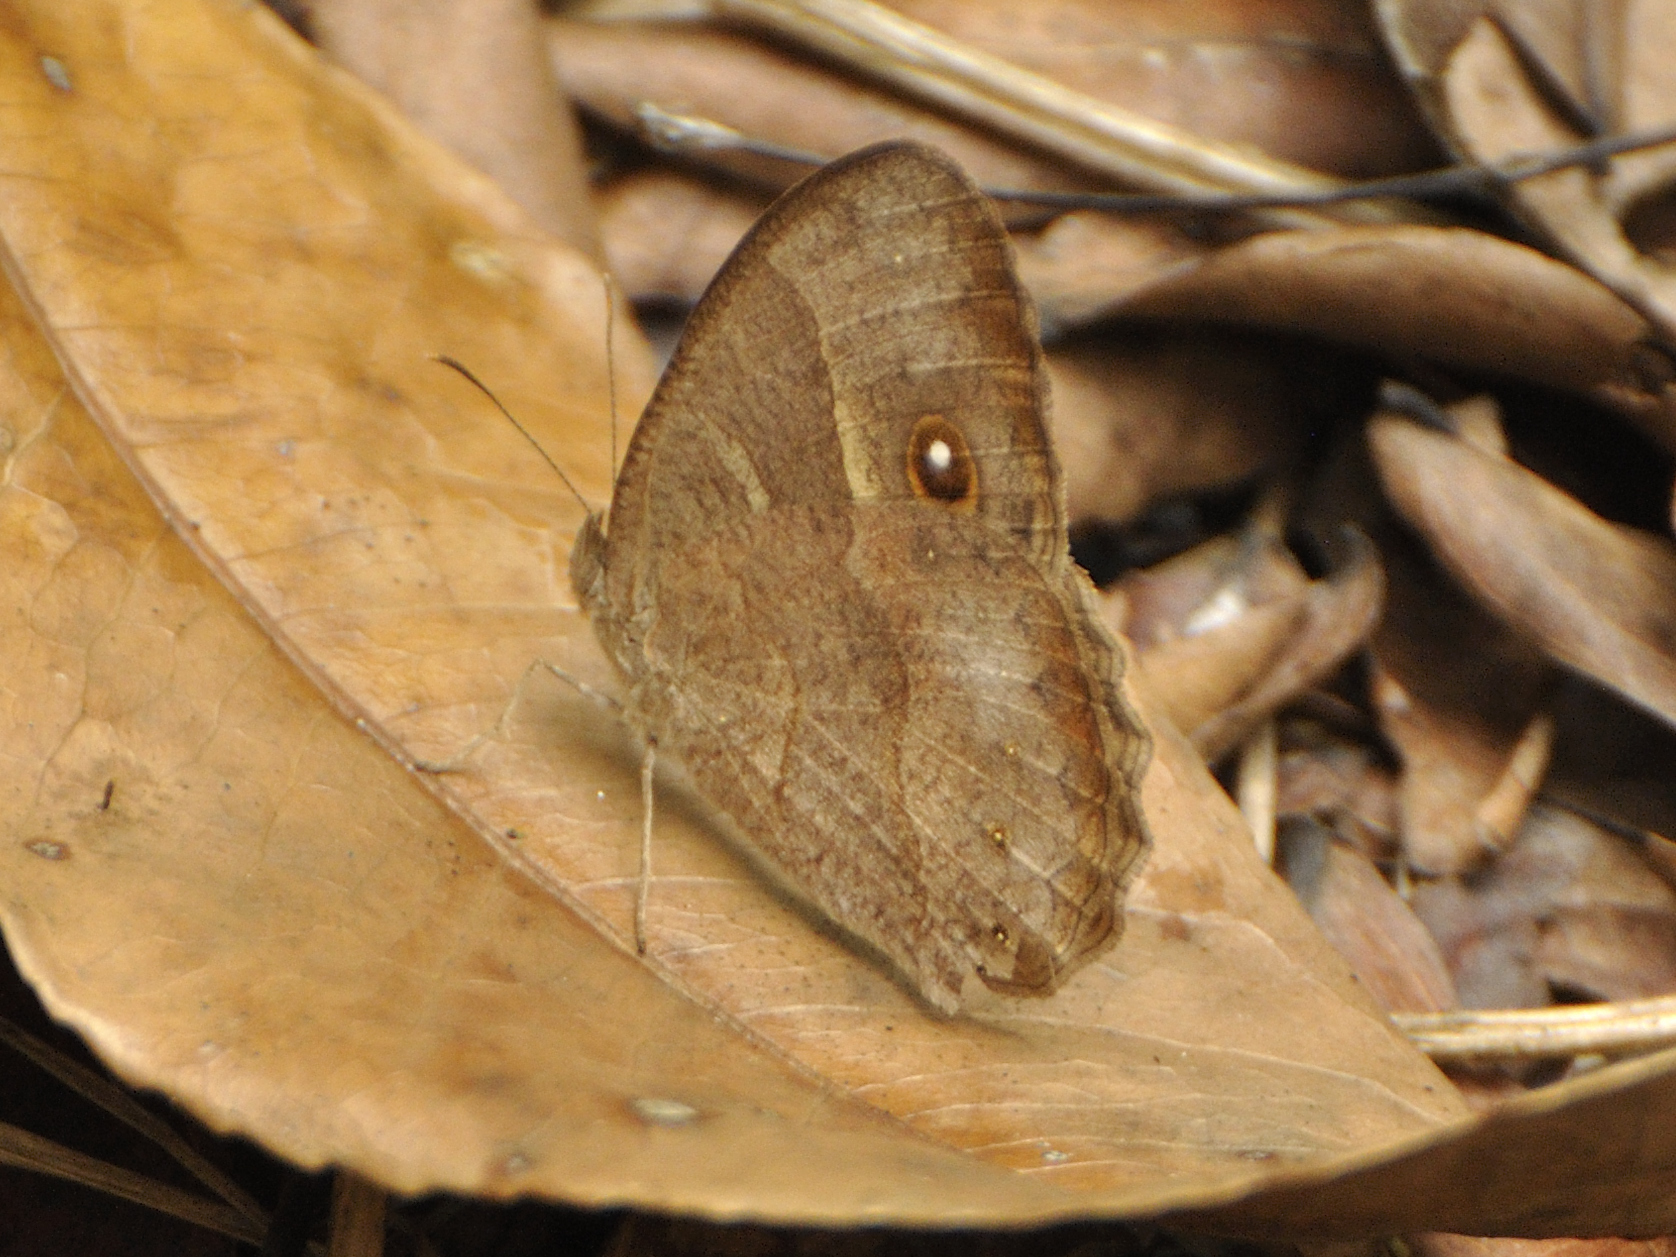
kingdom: Animalia
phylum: Arthropoda
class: Insecta
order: Lepidoptera
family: Nymphalidae
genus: Mycalesis
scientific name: Mycalesis anynana
